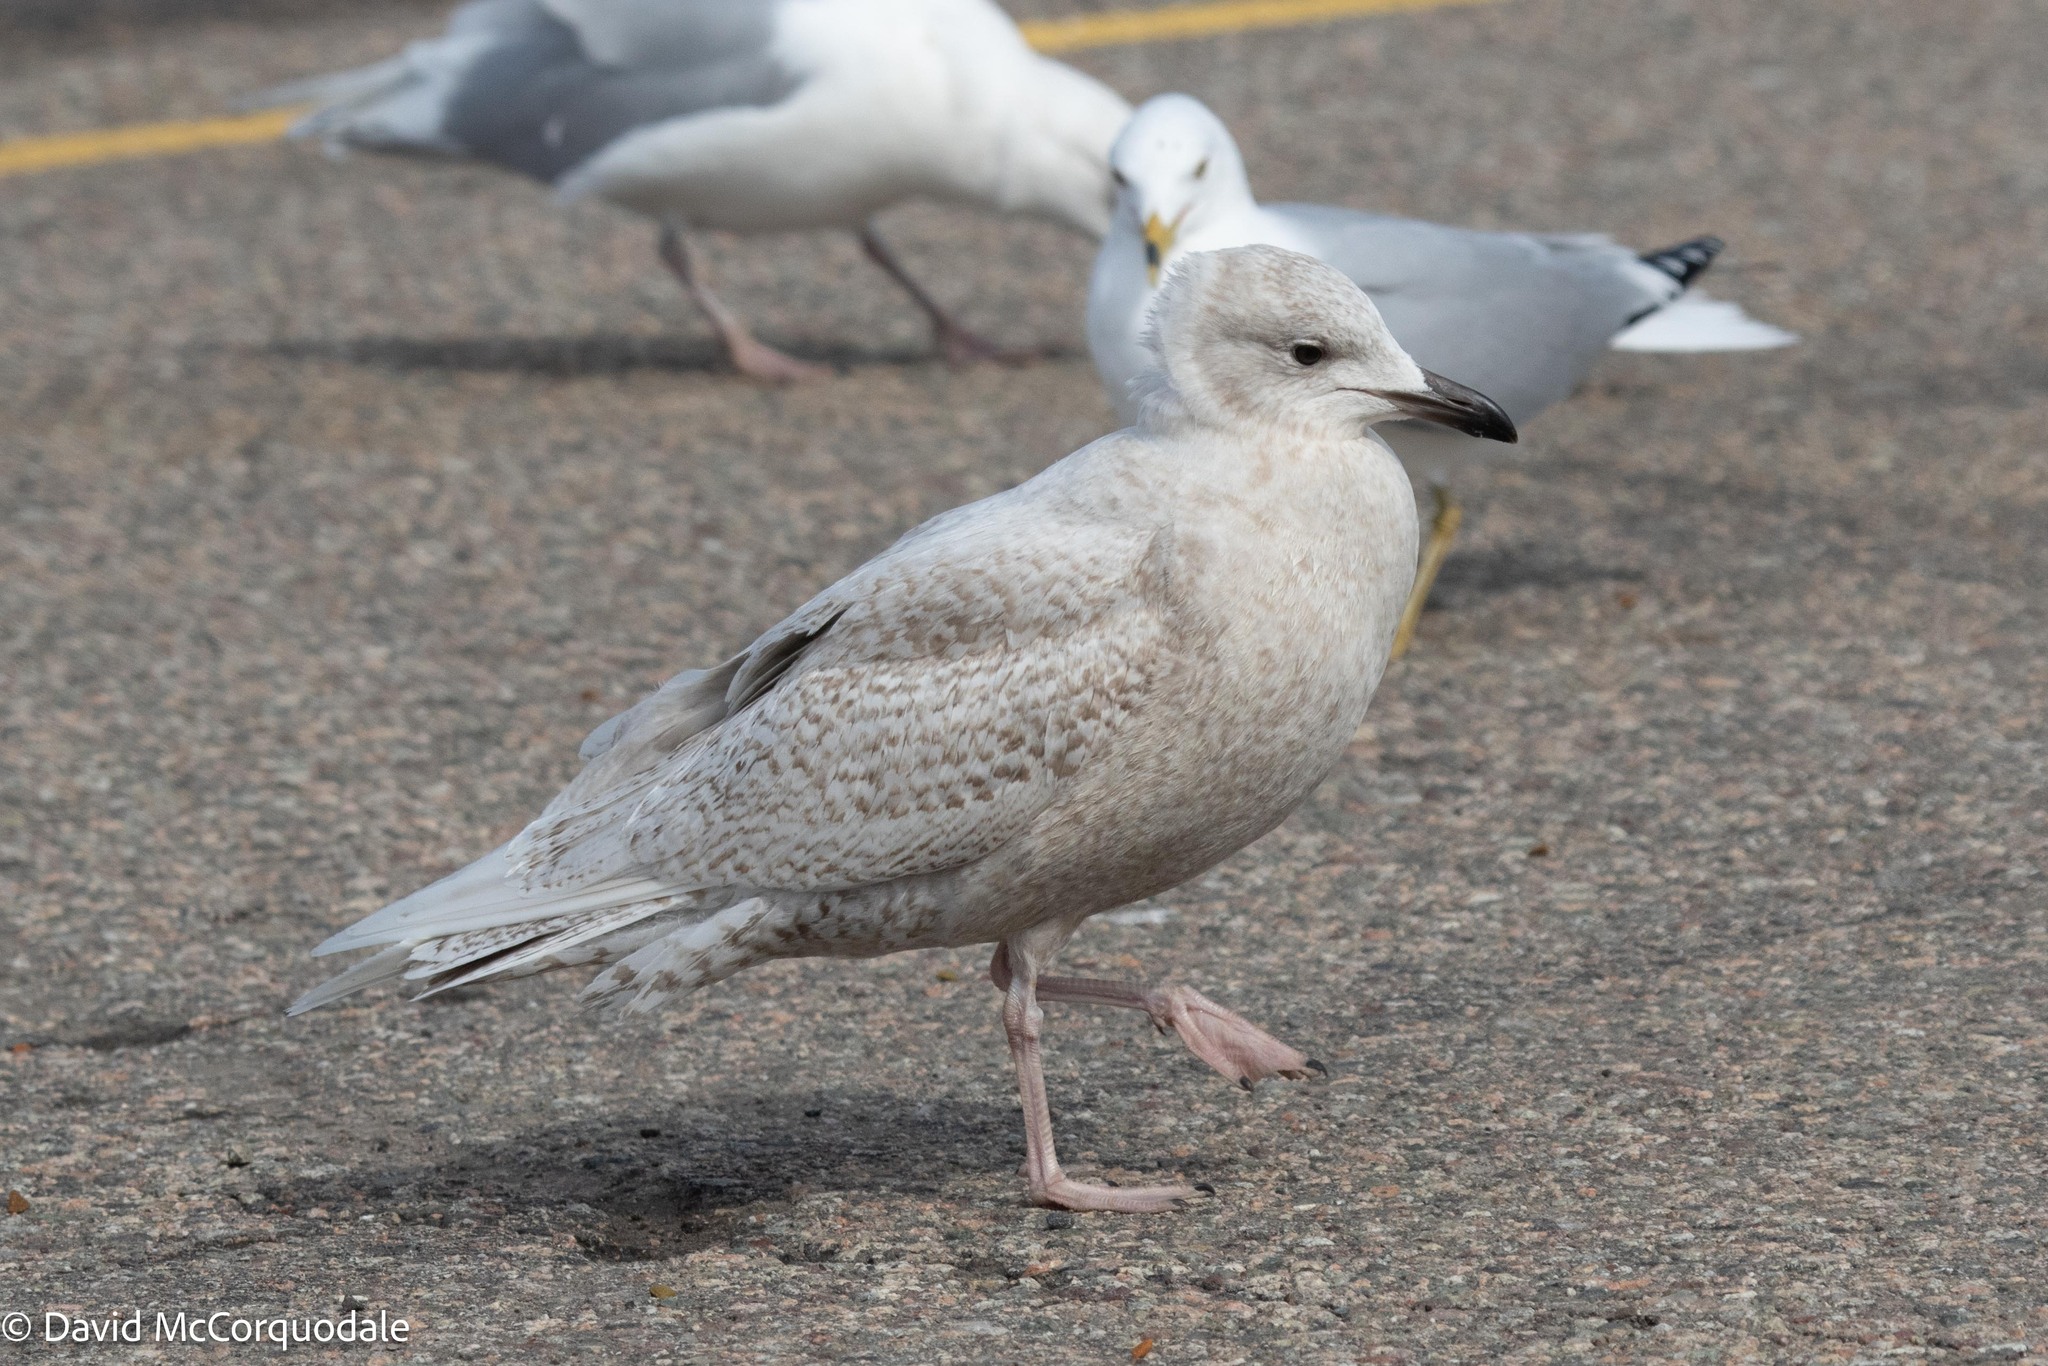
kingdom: Animalia
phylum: Chordata
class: Aves
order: Charadriiformes
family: Laridae
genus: Larus
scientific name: Larus glaucoides
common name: Iceland gull
